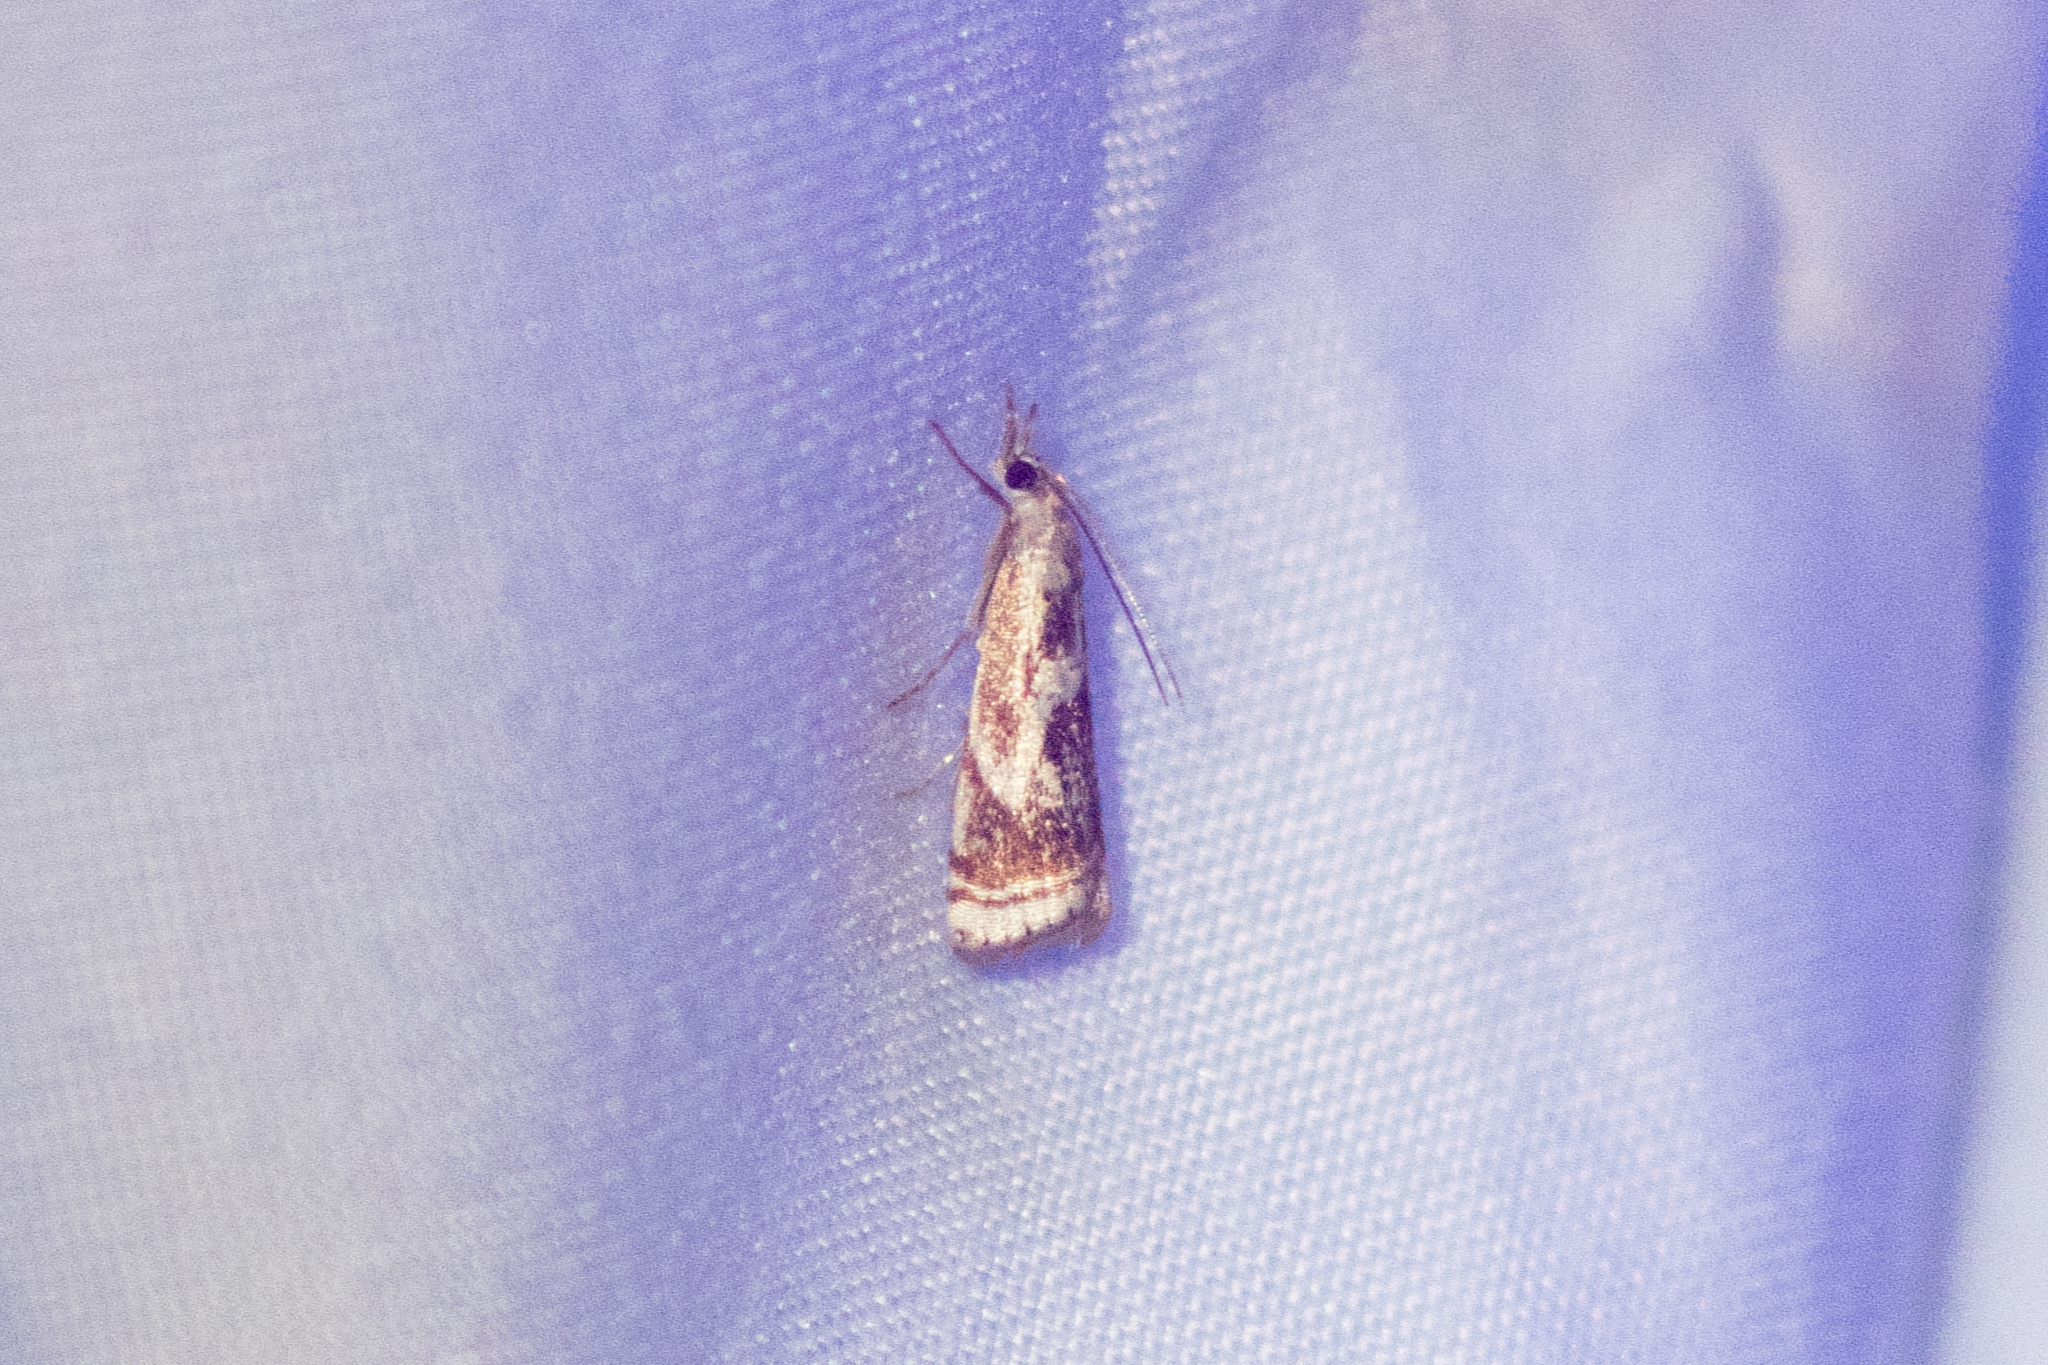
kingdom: Animalia
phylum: Arthropoda
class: Insecta
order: Lepidoptera
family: Crambidae
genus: Microcrambus
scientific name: Microcrambus elegans
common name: Elegant grass-veneer
